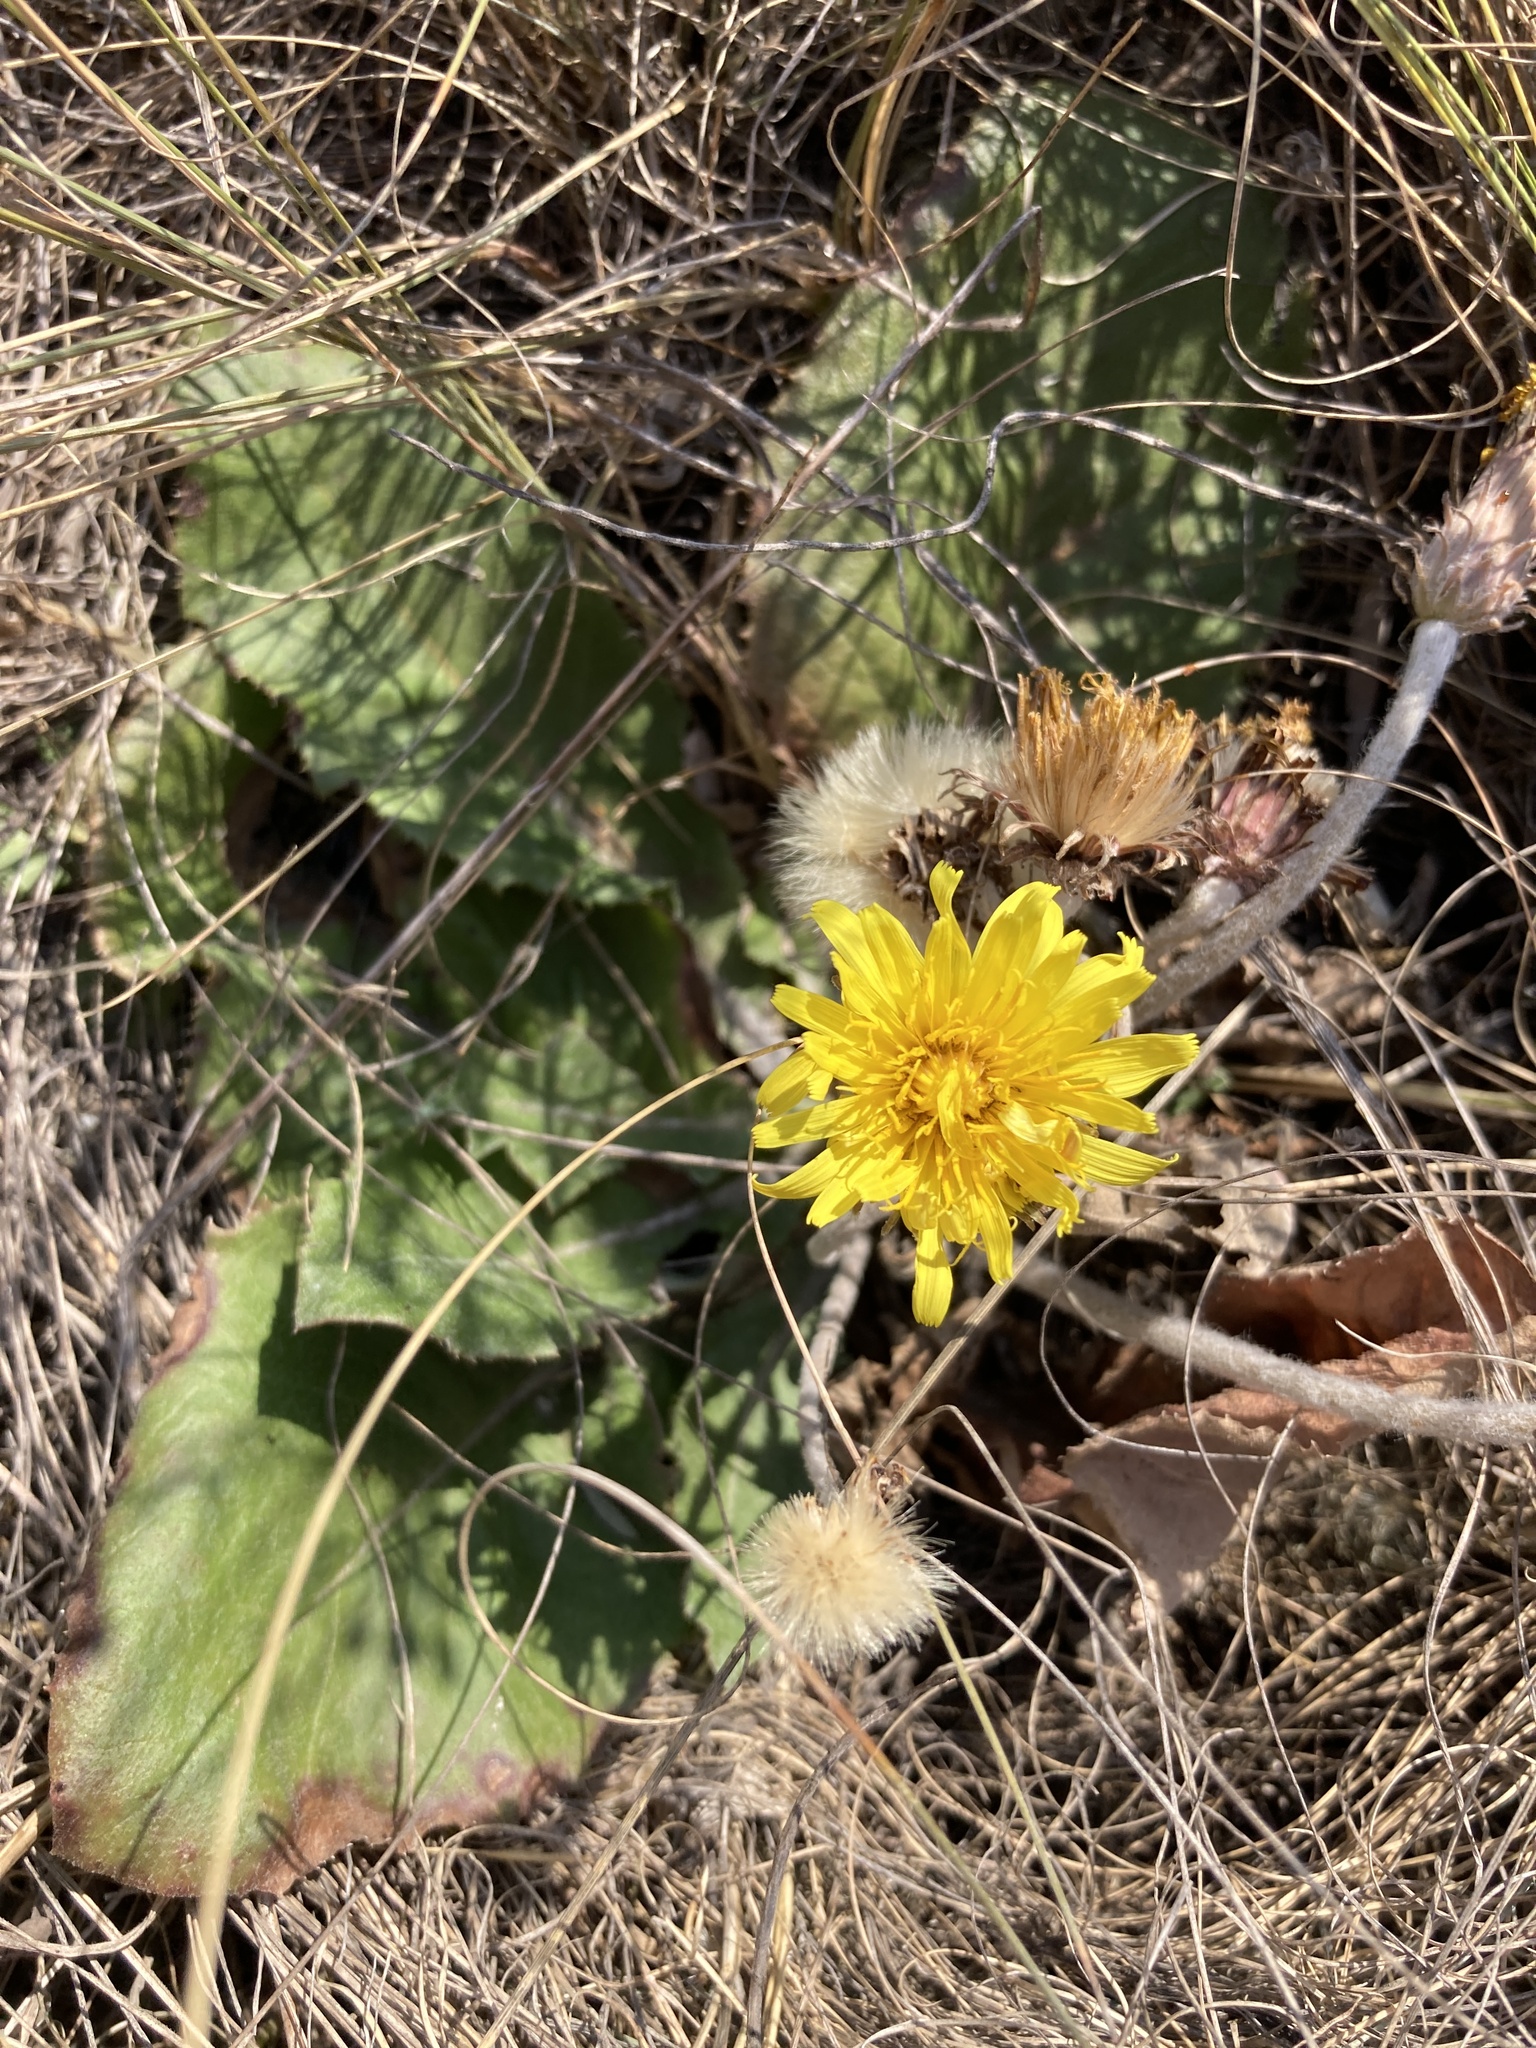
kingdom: Plantae
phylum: Tracheophyta
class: Magnoliopsida
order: Asterales
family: Asteraceae
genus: Taraxacum
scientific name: Taraxacum serotinum
